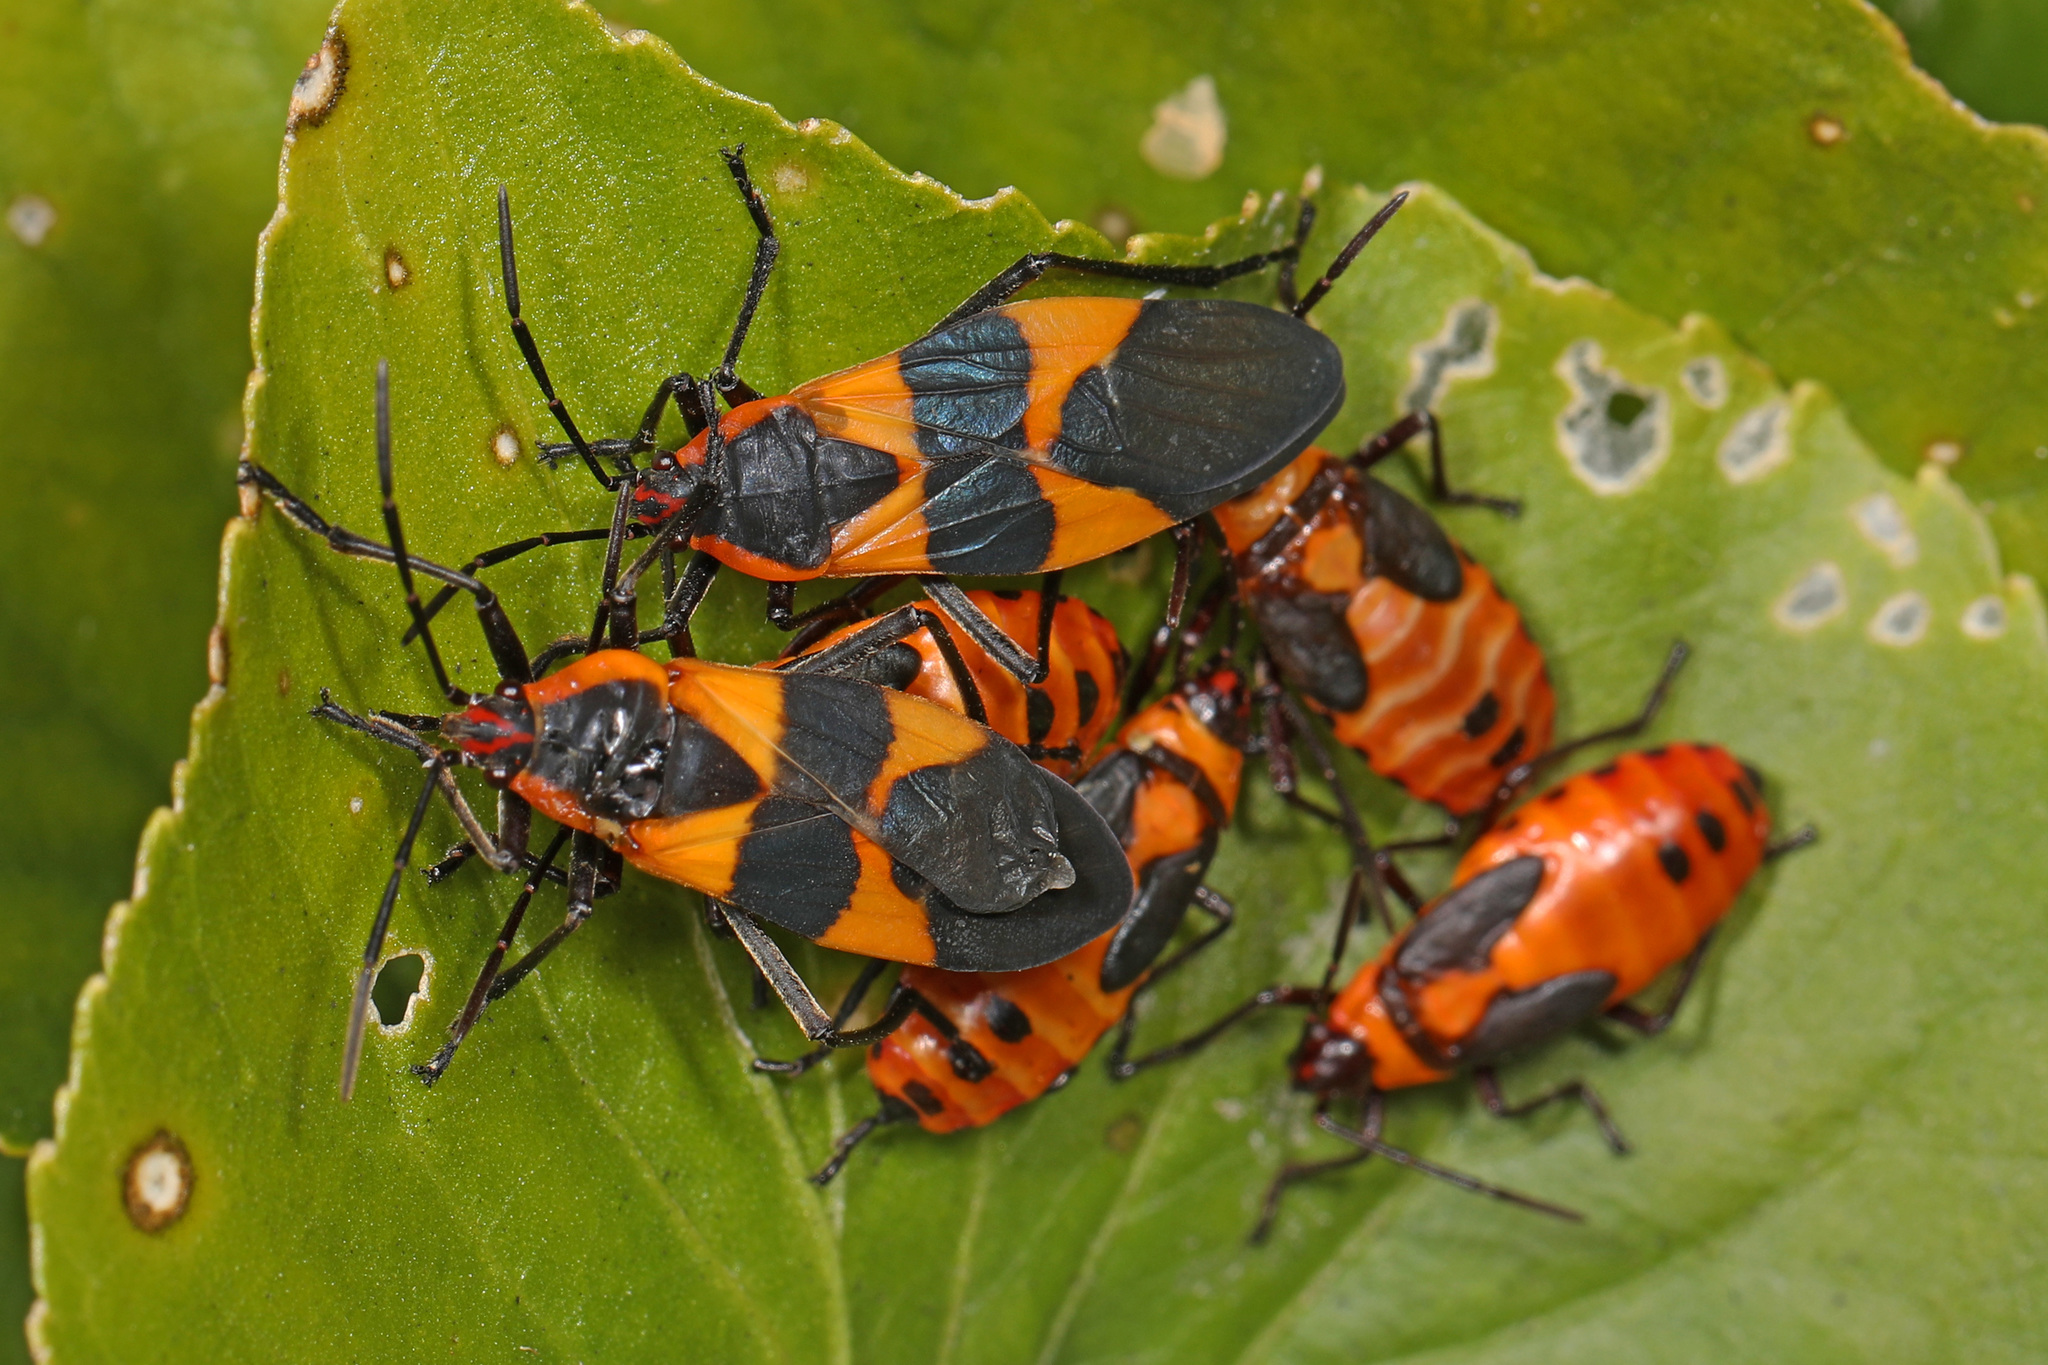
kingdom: Animalia
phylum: Arthropoda
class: Insecta
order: Hemiptera
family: Lygaeidae
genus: Oncopeltus
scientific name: Oncopeltus fasciatus
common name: Large milkweed bug
